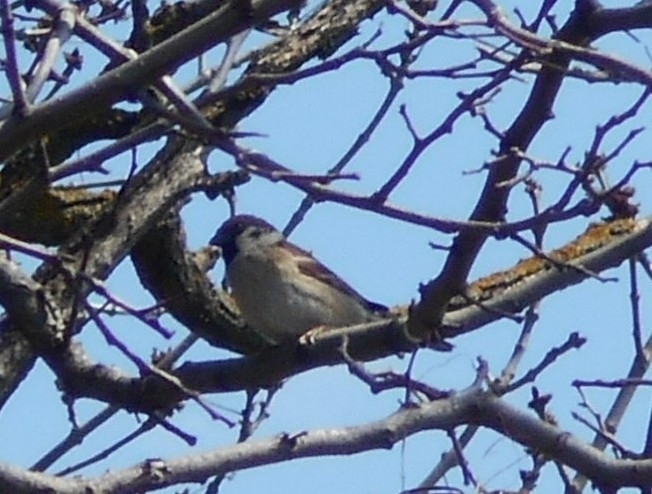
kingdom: Animalia
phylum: Chordata
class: Aves
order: Passeriformes
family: Passeridae
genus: Passer
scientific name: Passer montanus
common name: Eurasian tree sparrow
